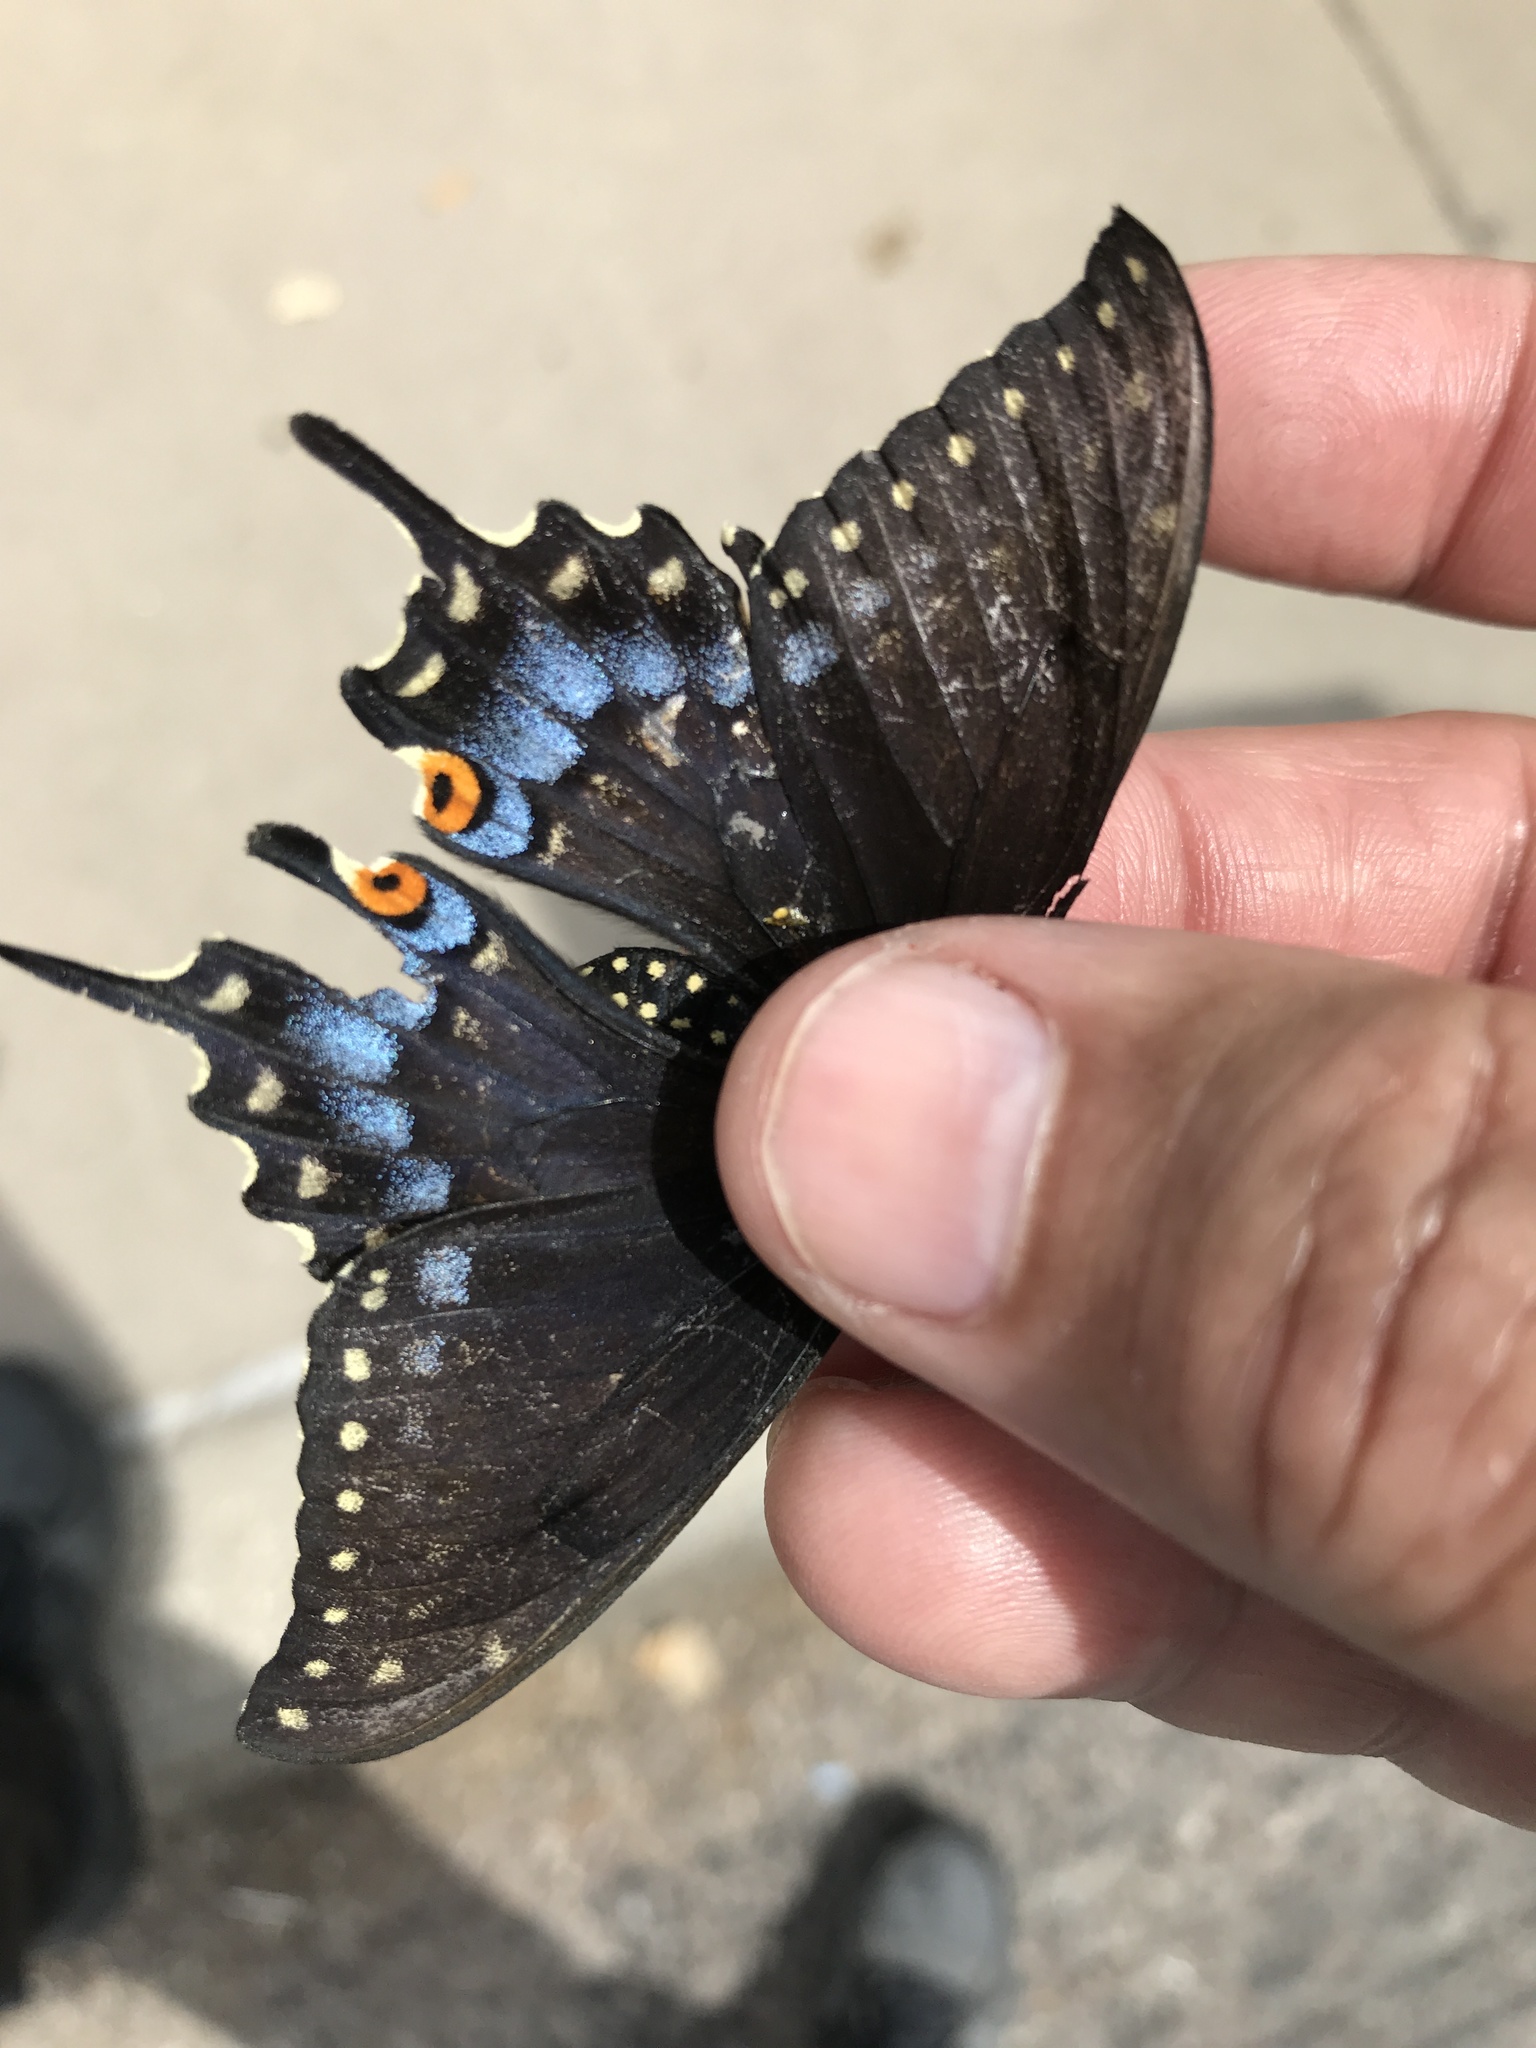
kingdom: Animalia
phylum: Arthropoda
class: Insecta
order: Lepidoptera
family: Papilionidae
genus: Papilio
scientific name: Papilio polyxenes
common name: Black swallowtail
